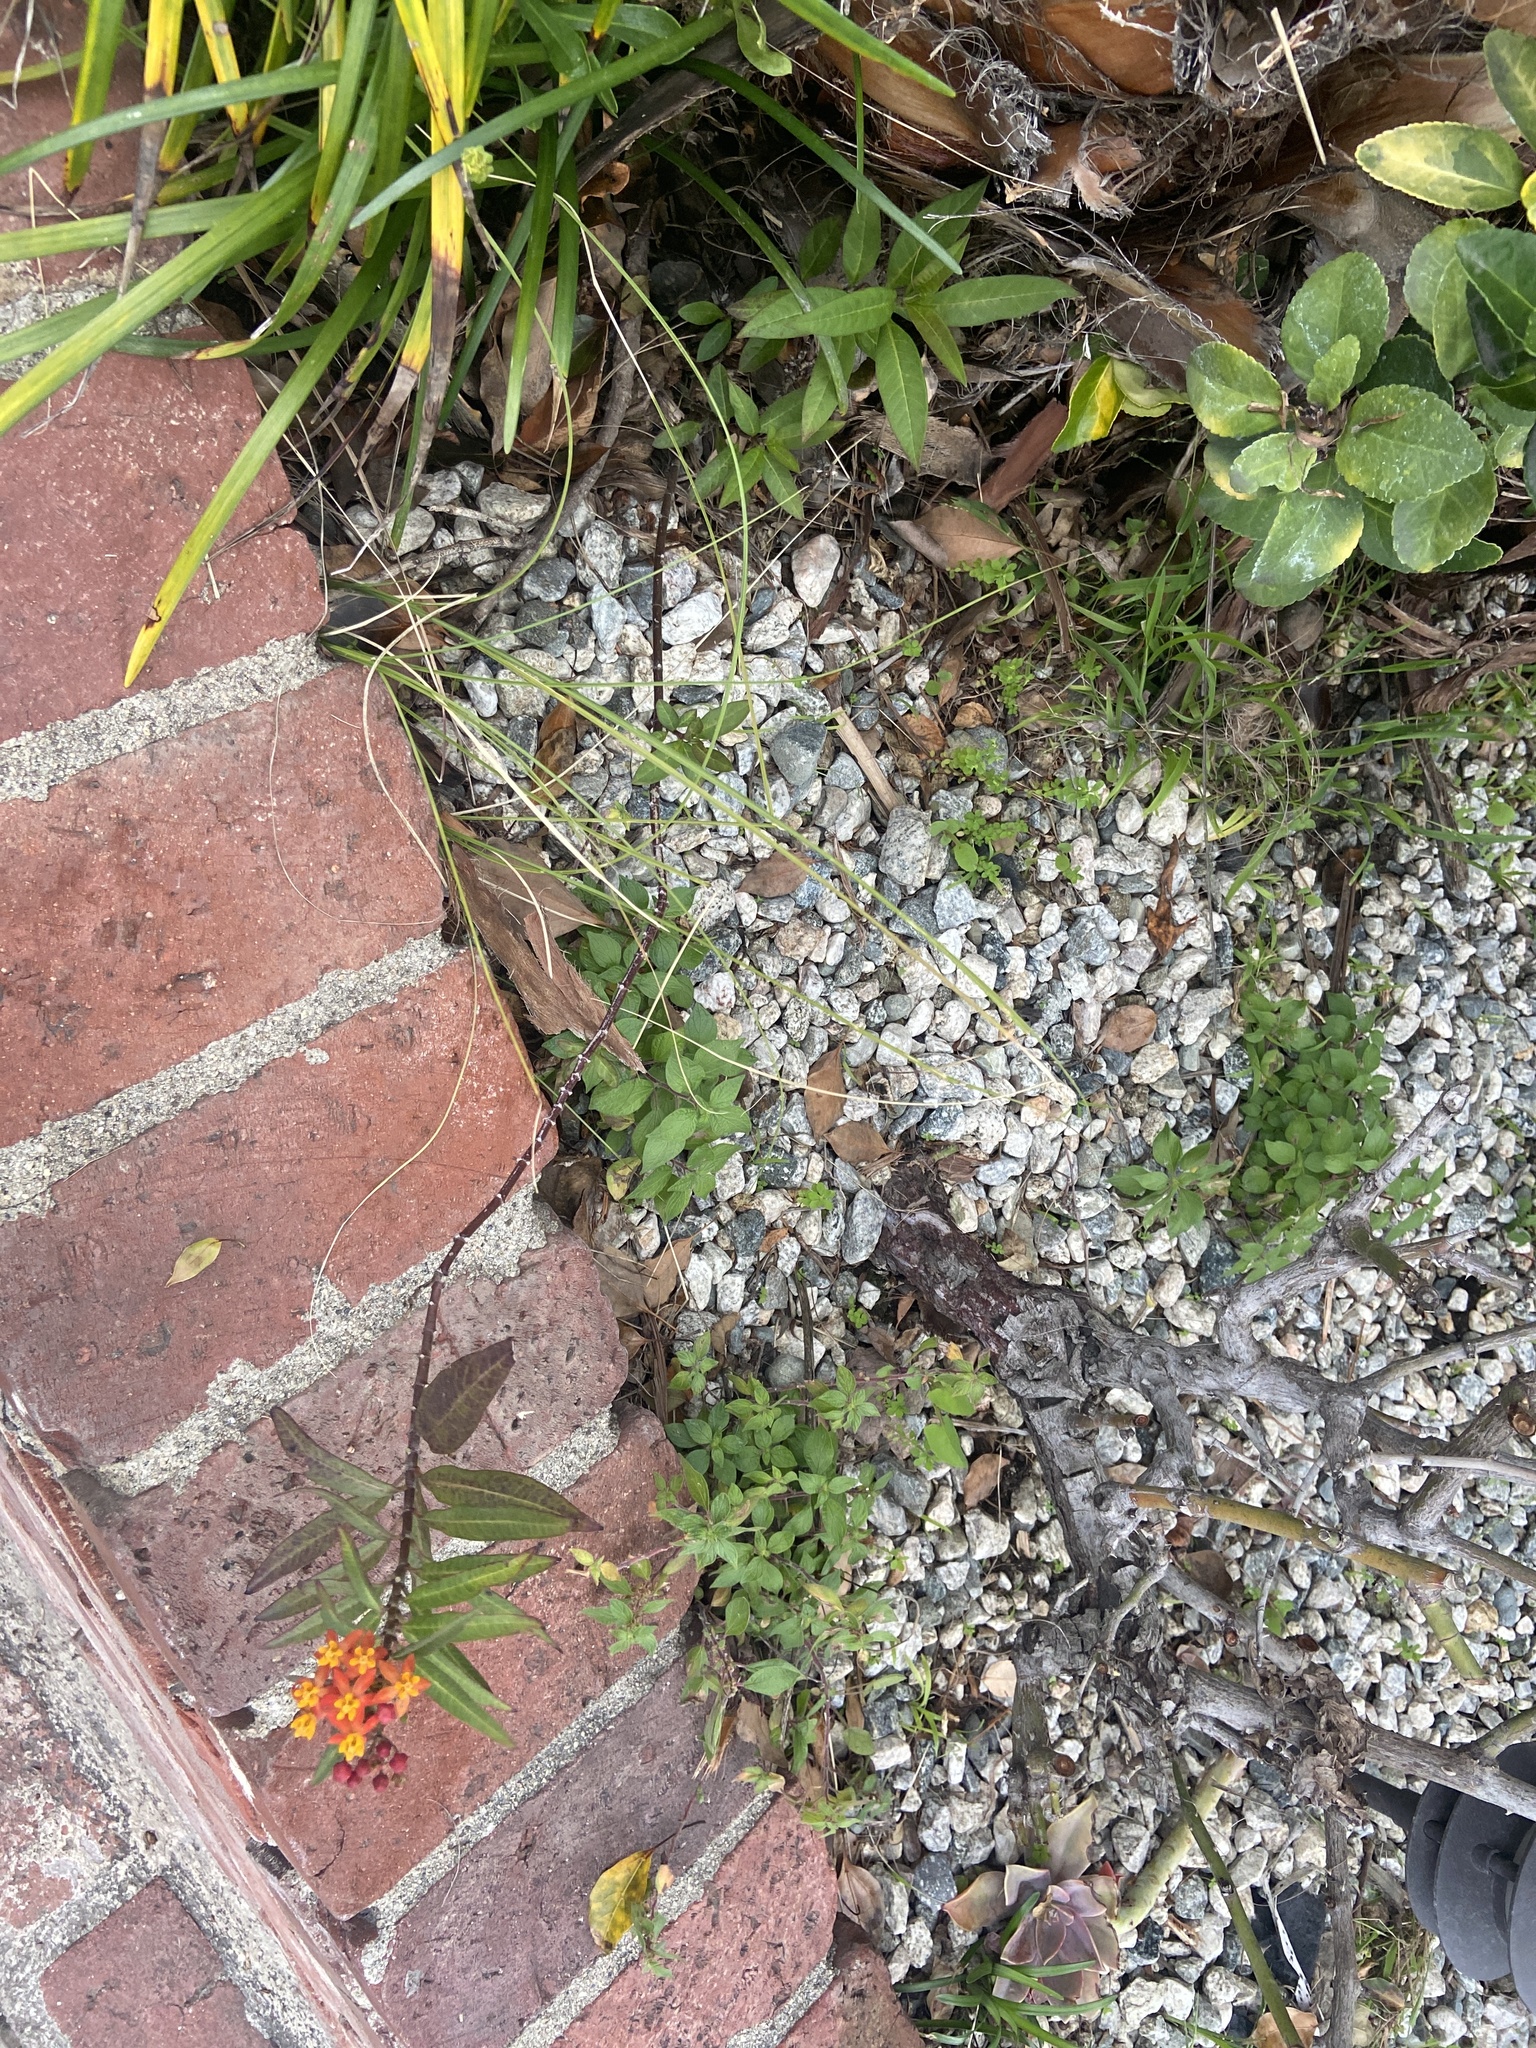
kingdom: Plantae
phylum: Tracheophyta
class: Magnoliopsida
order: Gentianales
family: Apocynaceae
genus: Asclepias
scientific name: Asclepias curassavica
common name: Bloodflower
